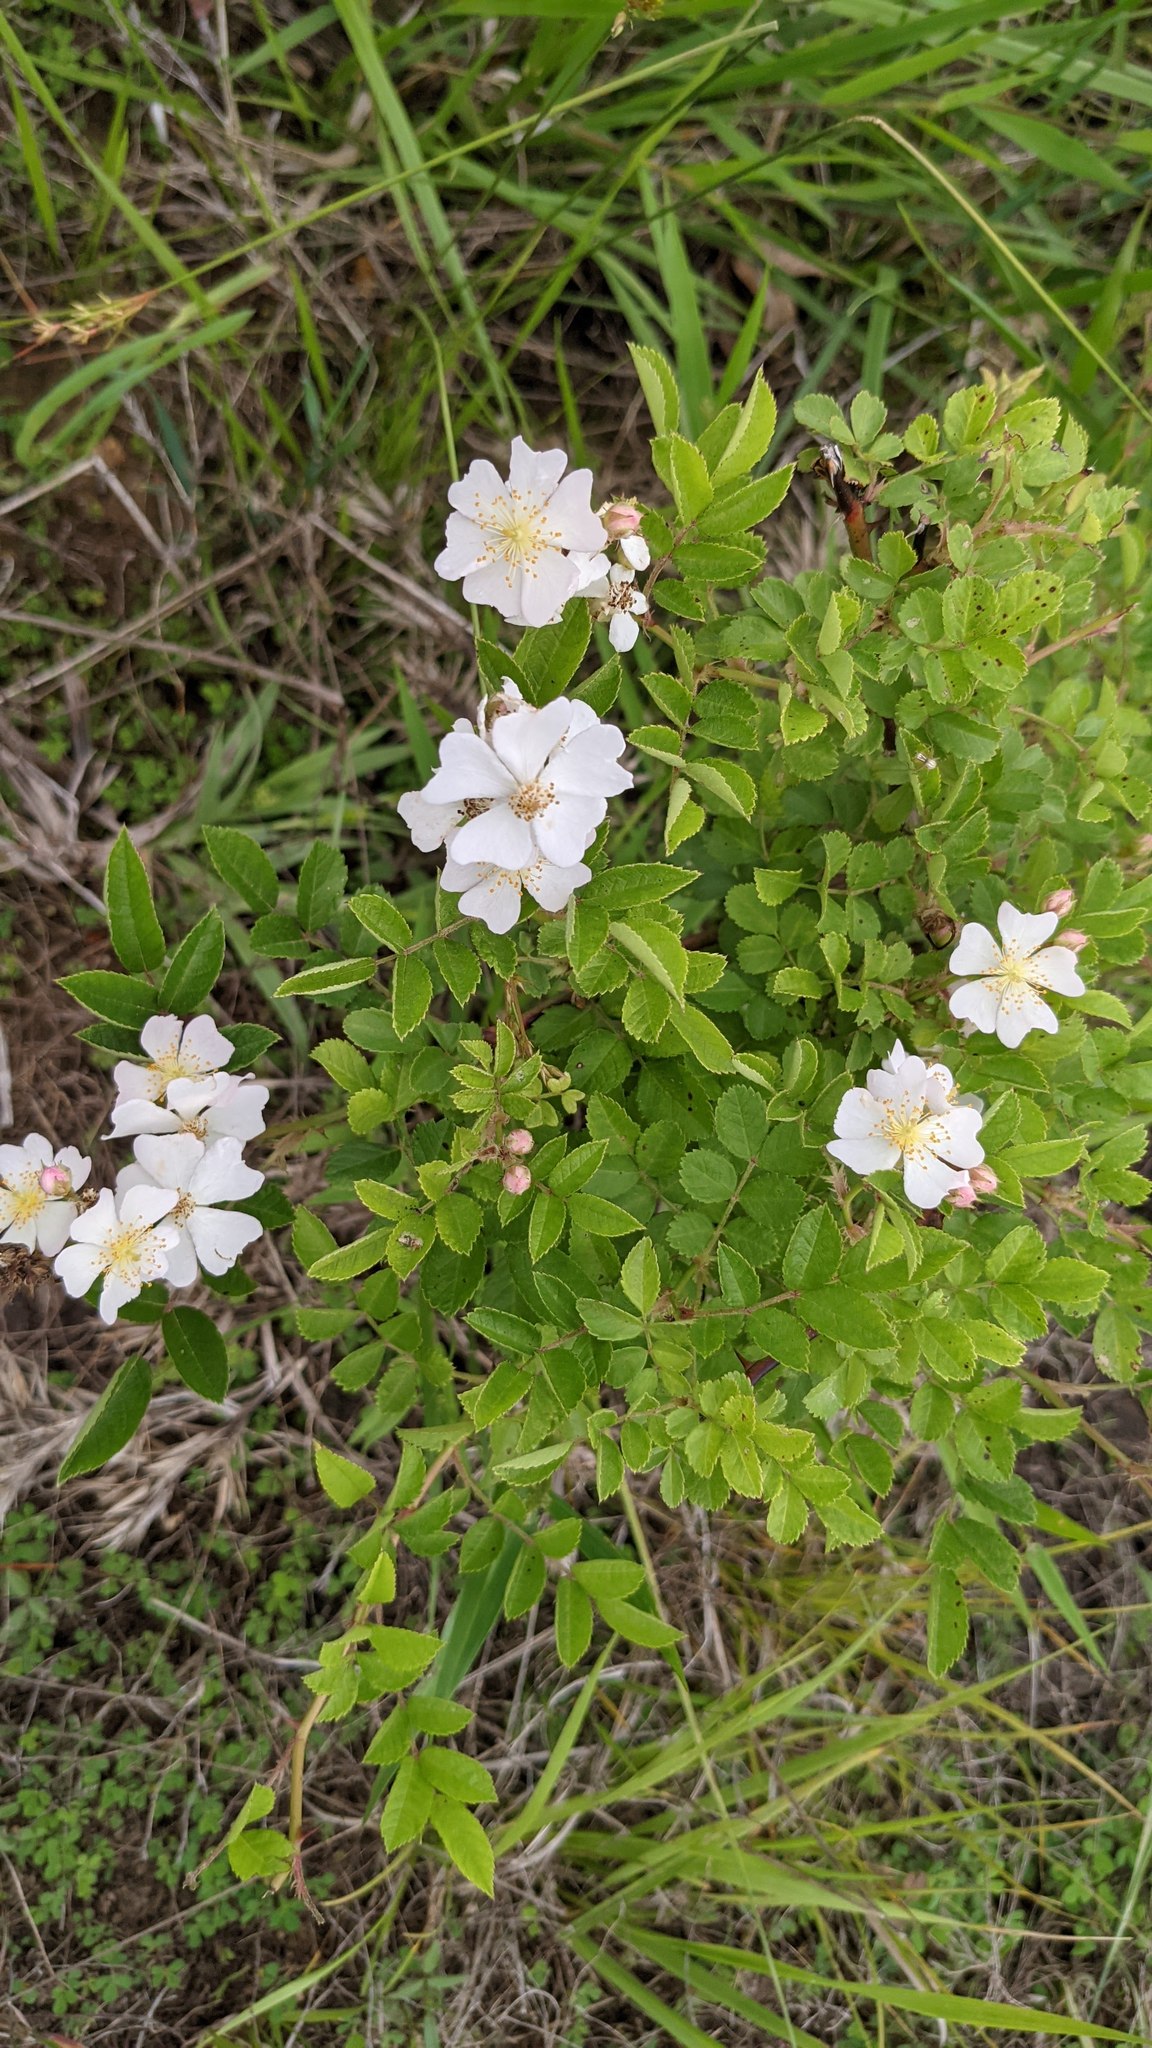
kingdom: Plantae
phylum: Tracheophyta
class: Magnoliopsida
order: Rosales
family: Rosaceae
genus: Rosa
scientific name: Rosa multiflora
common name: Multiflora rose
